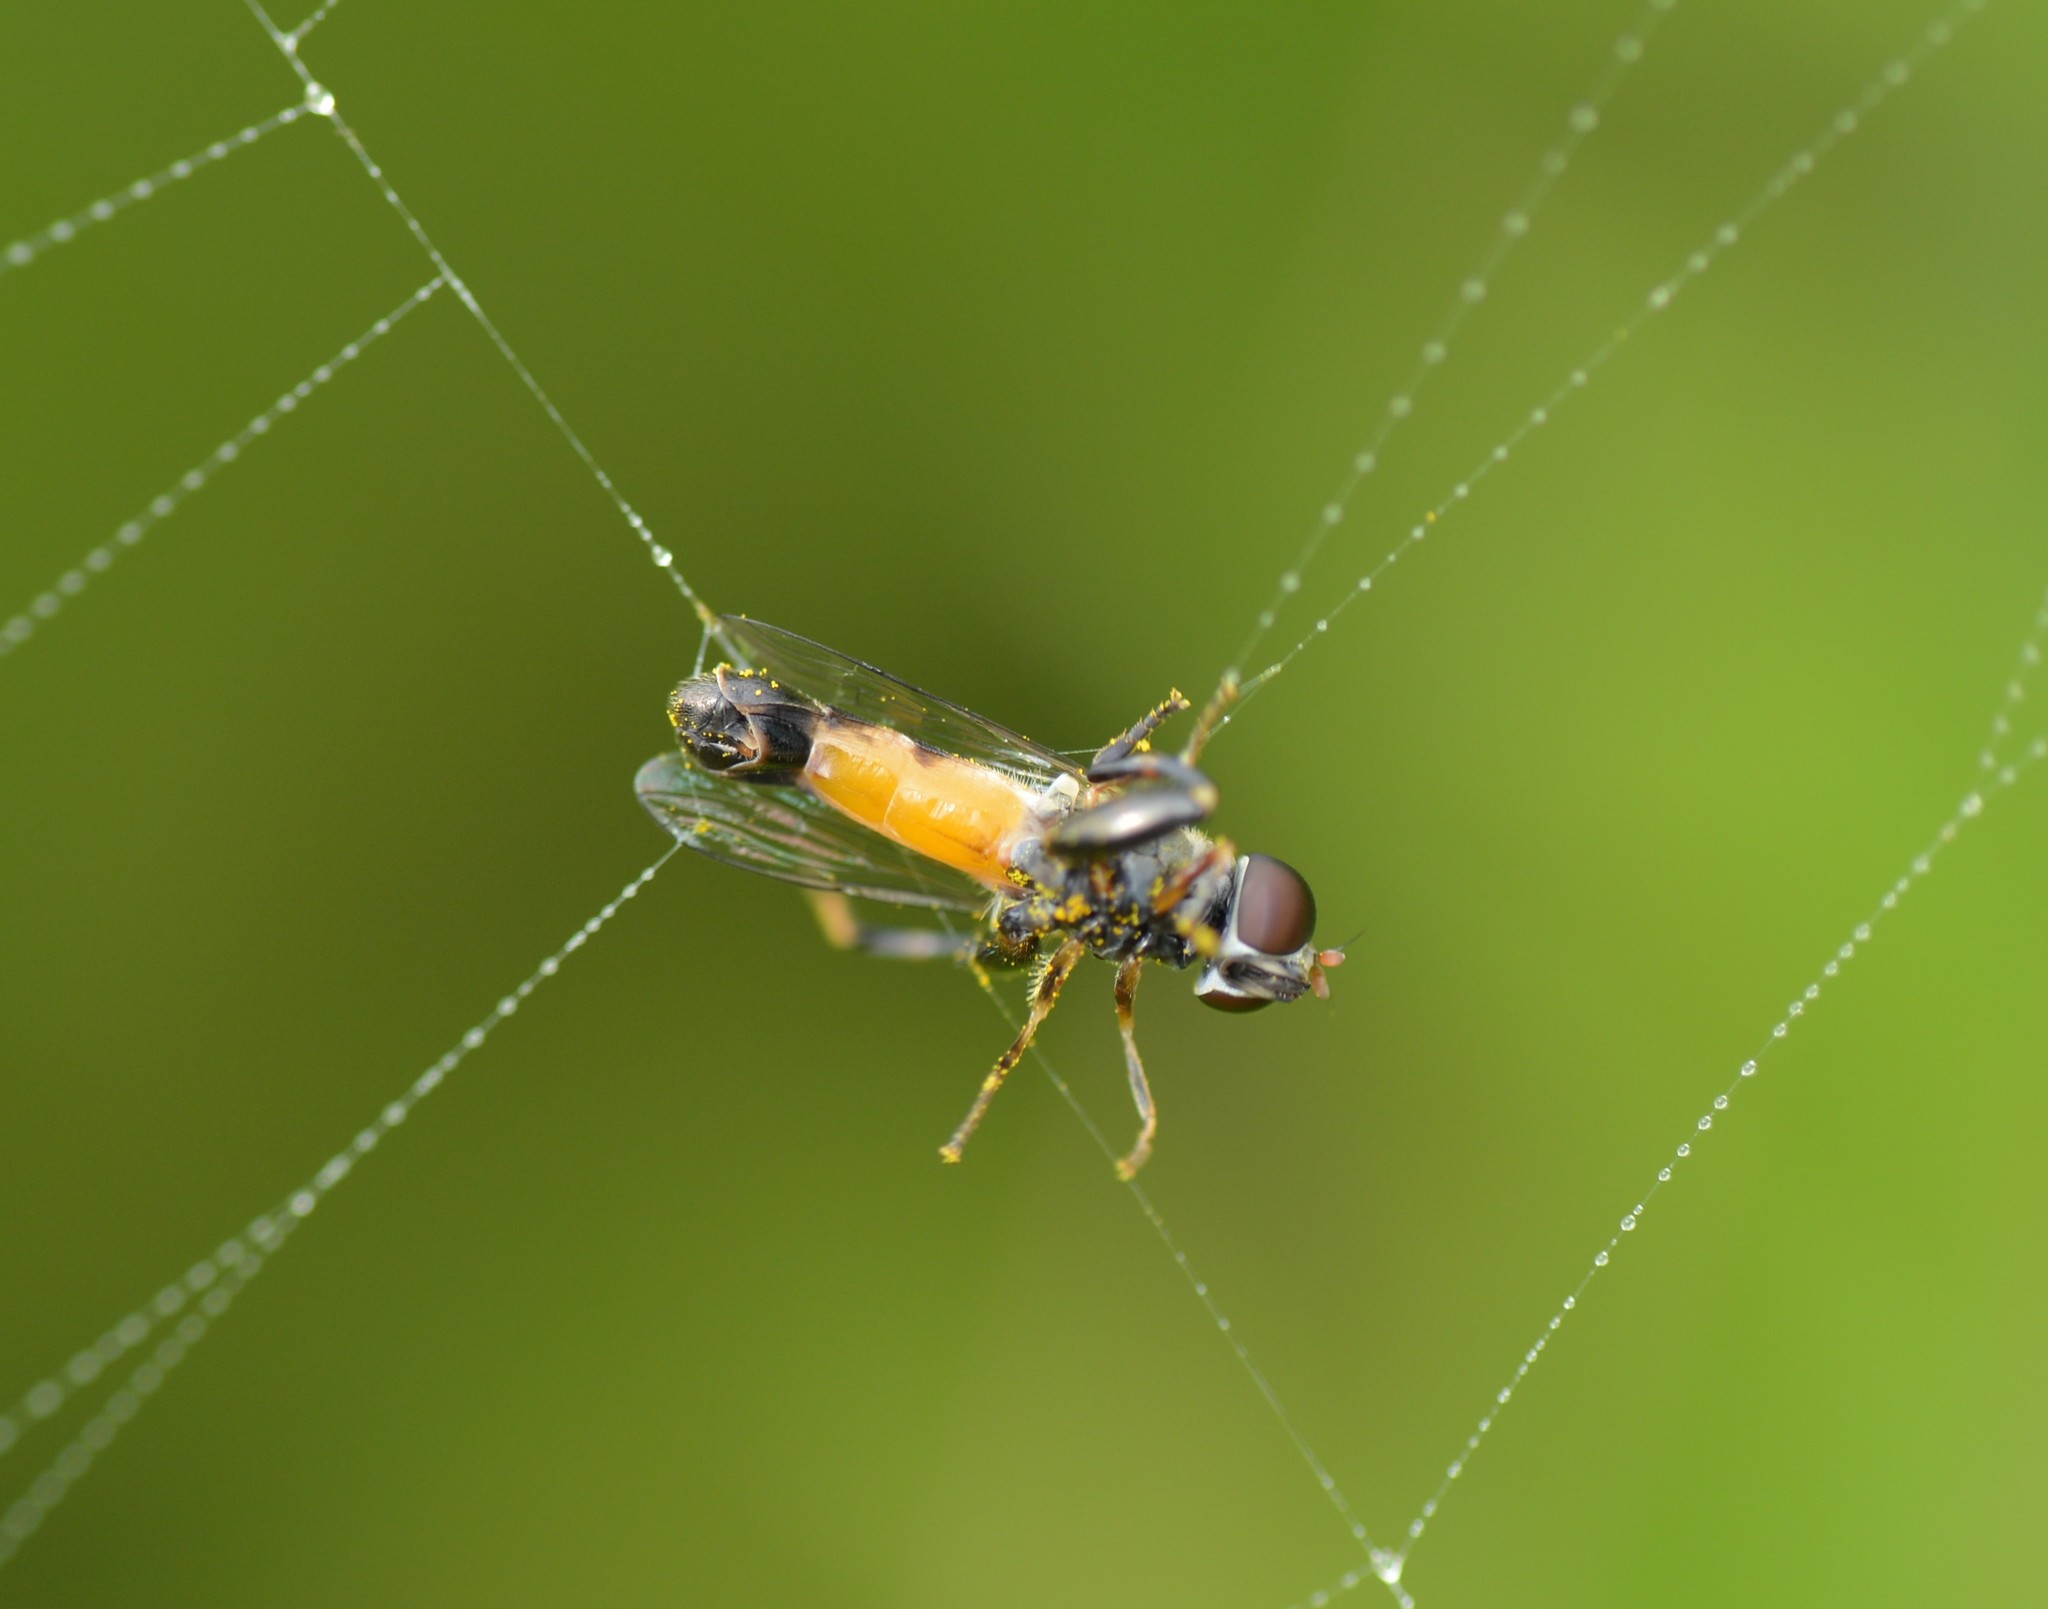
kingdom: Animalia
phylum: Arthropoda
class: Insecta
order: Diptera
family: Syrphidae
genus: Syritta
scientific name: Syritta pipiens
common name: Hover fly
